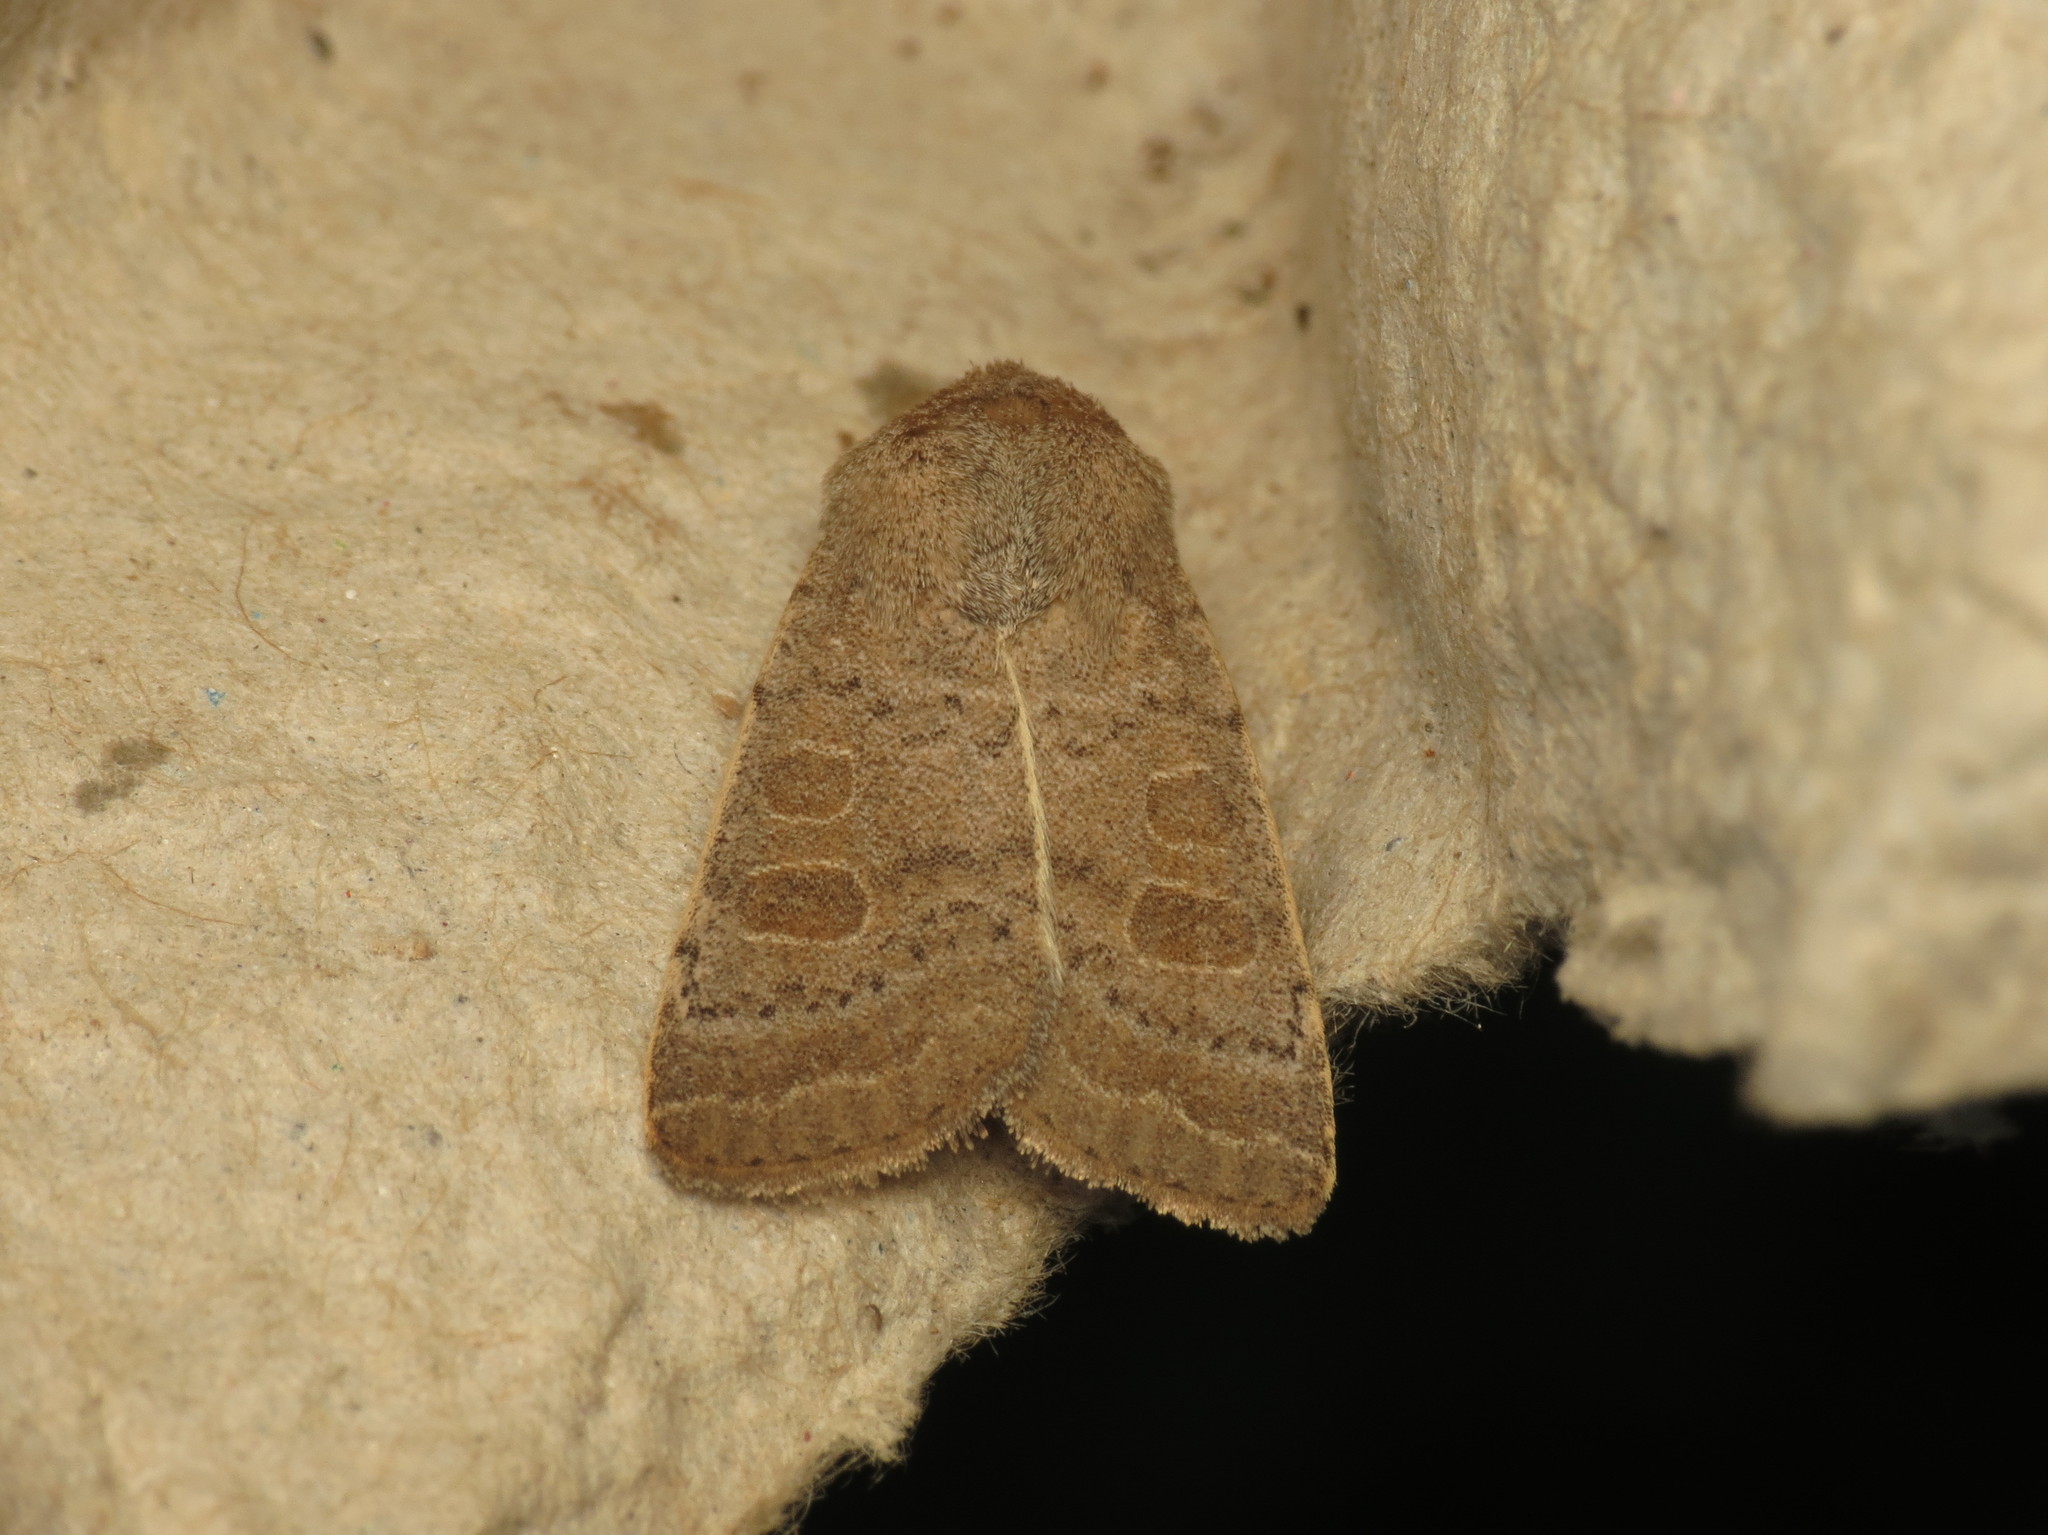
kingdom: Animalia
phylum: Arthropoda
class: Insecta
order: Lepidoptera
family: Noctuidae
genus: Hoplodrina
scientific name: Hoplodrina ambigua
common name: Vine's rustic
